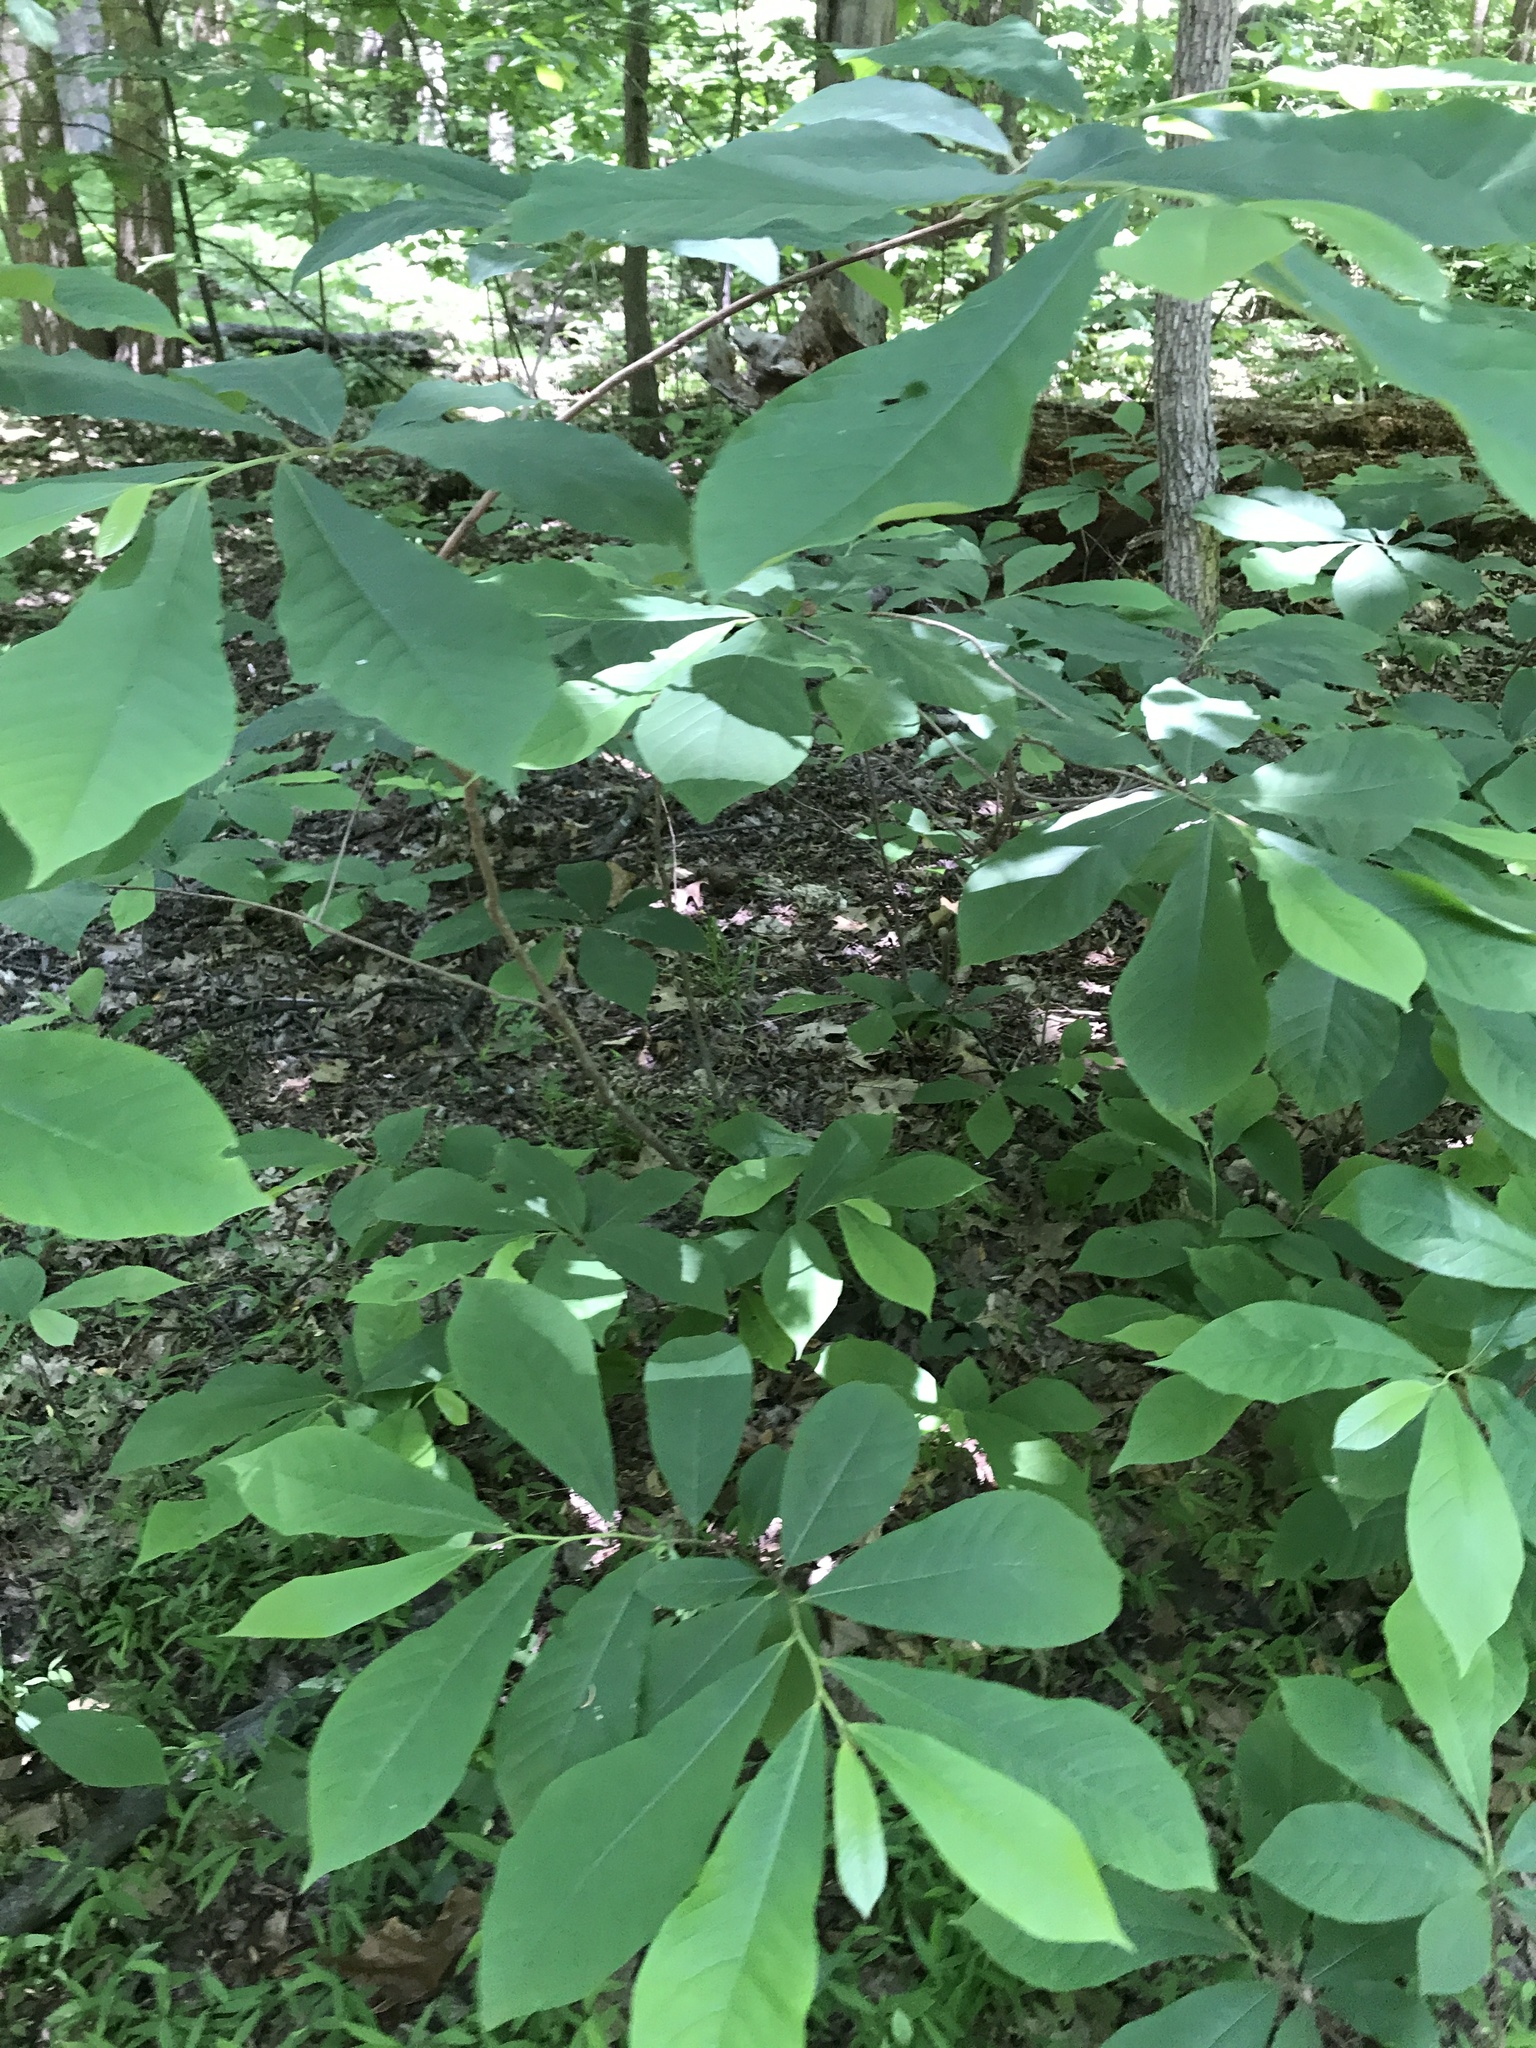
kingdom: Plantae
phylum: Tracheophyta
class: Magnoliopsida
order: Magnoliales
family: Annonaceae
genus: Asimina
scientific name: Asimina triloba
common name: Dog-banana
